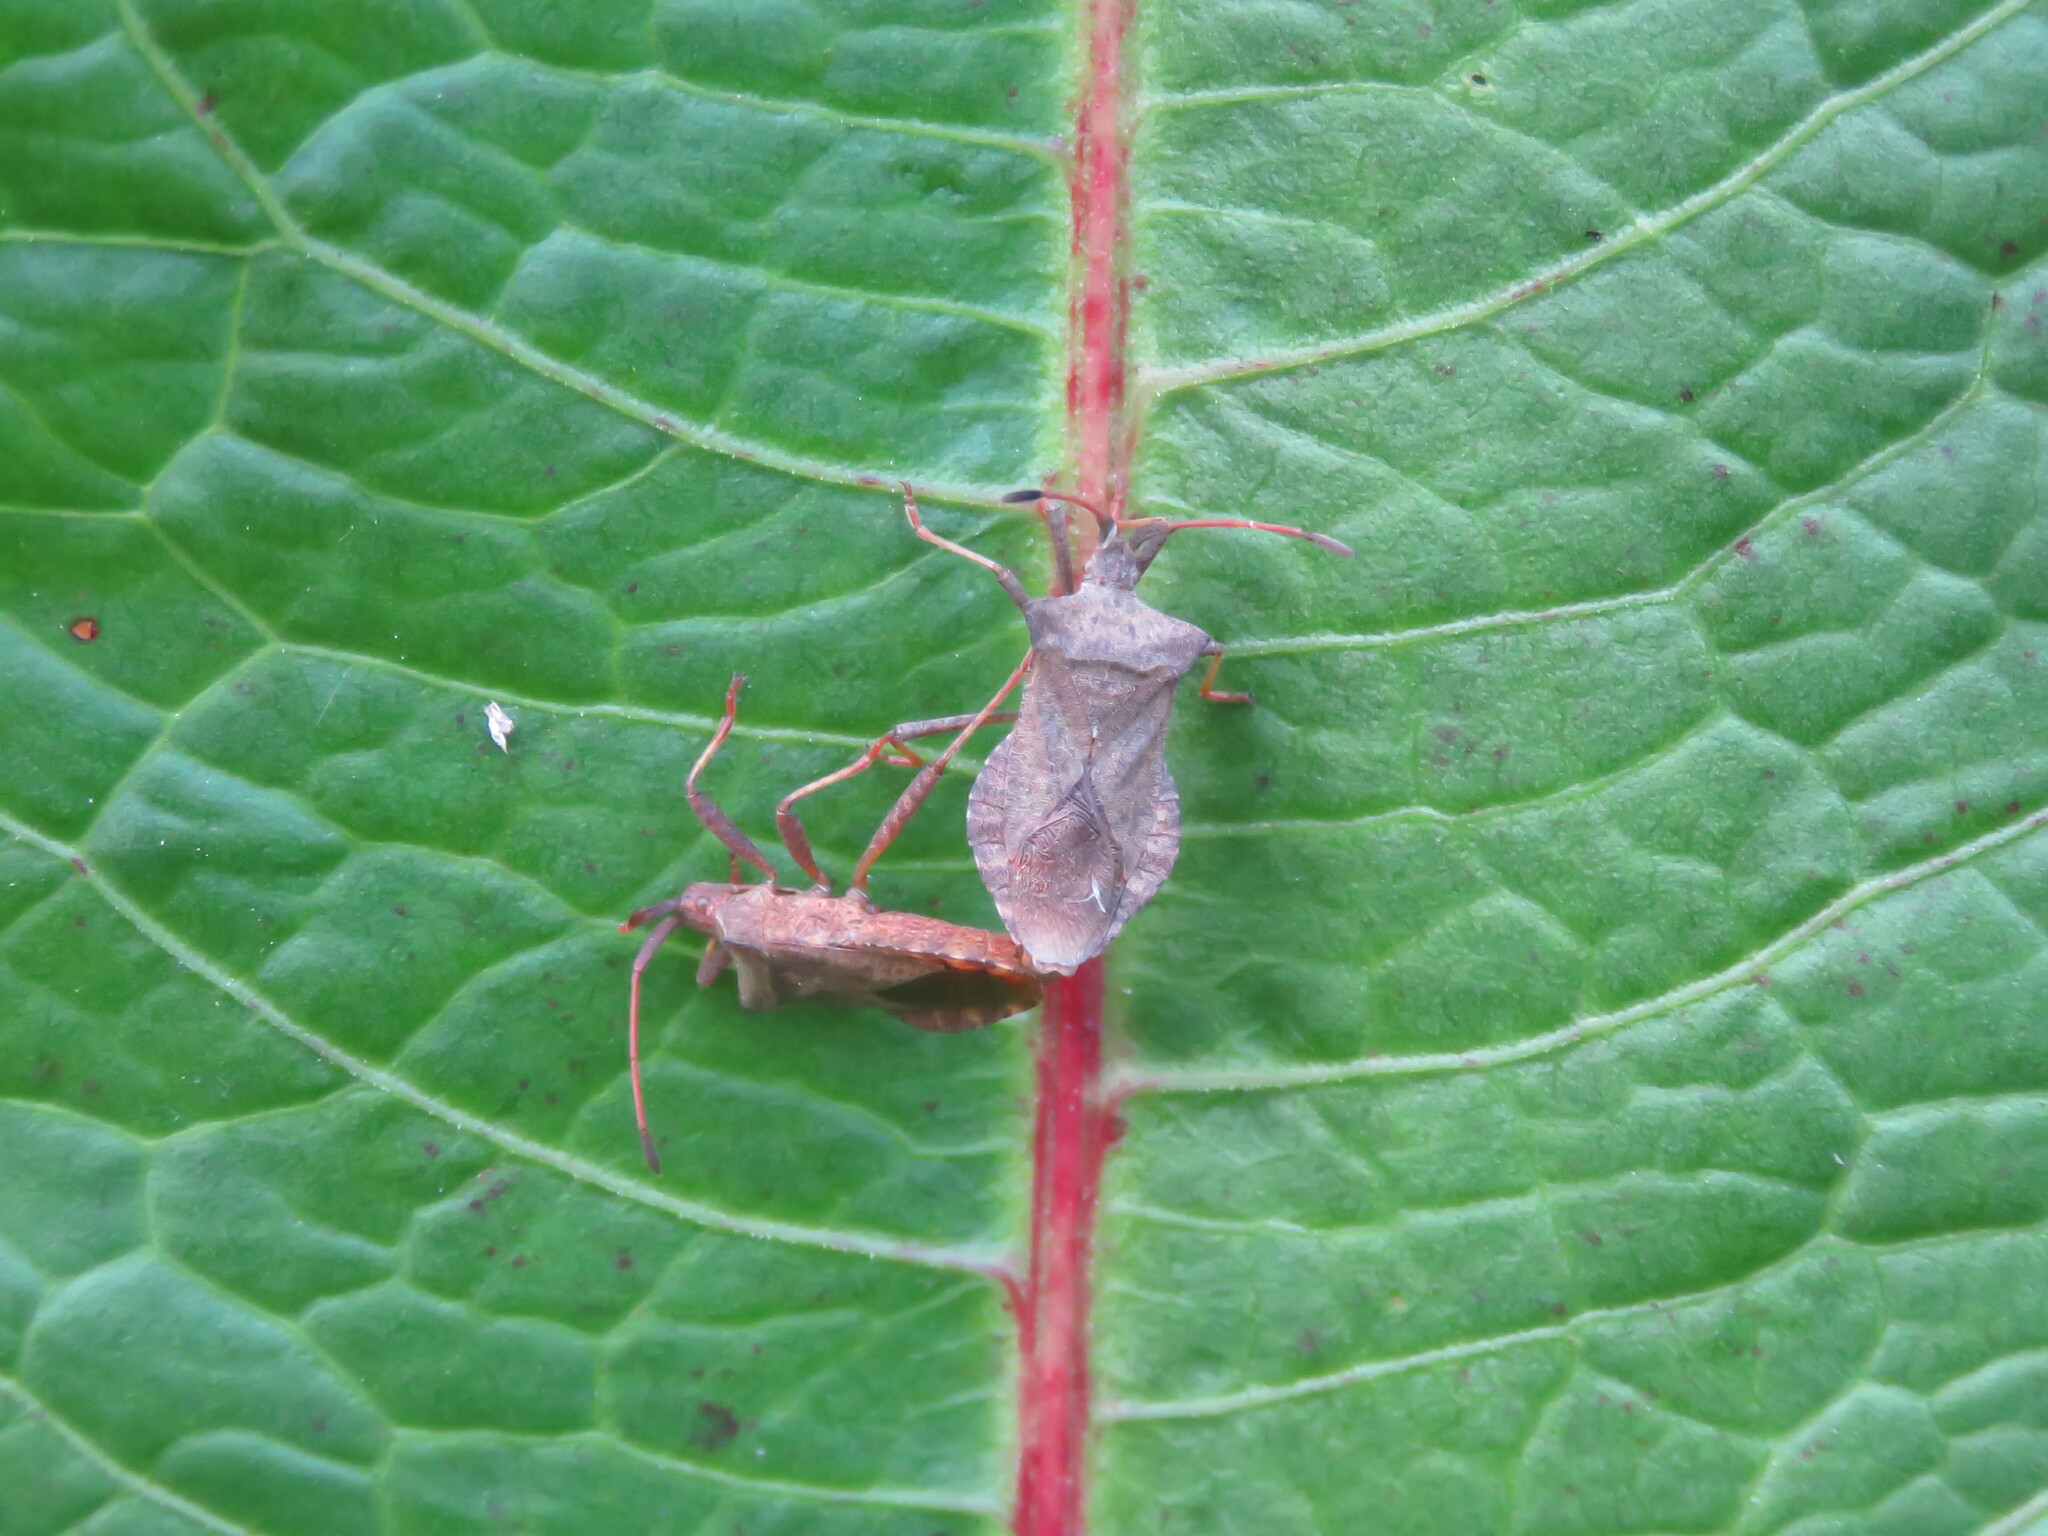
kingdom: Animalia
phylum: Arthropoda
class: Insecta
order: Hemiptera
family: Coreidae
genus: Coreus
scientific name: Coreus marginatus
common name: Dock bug
